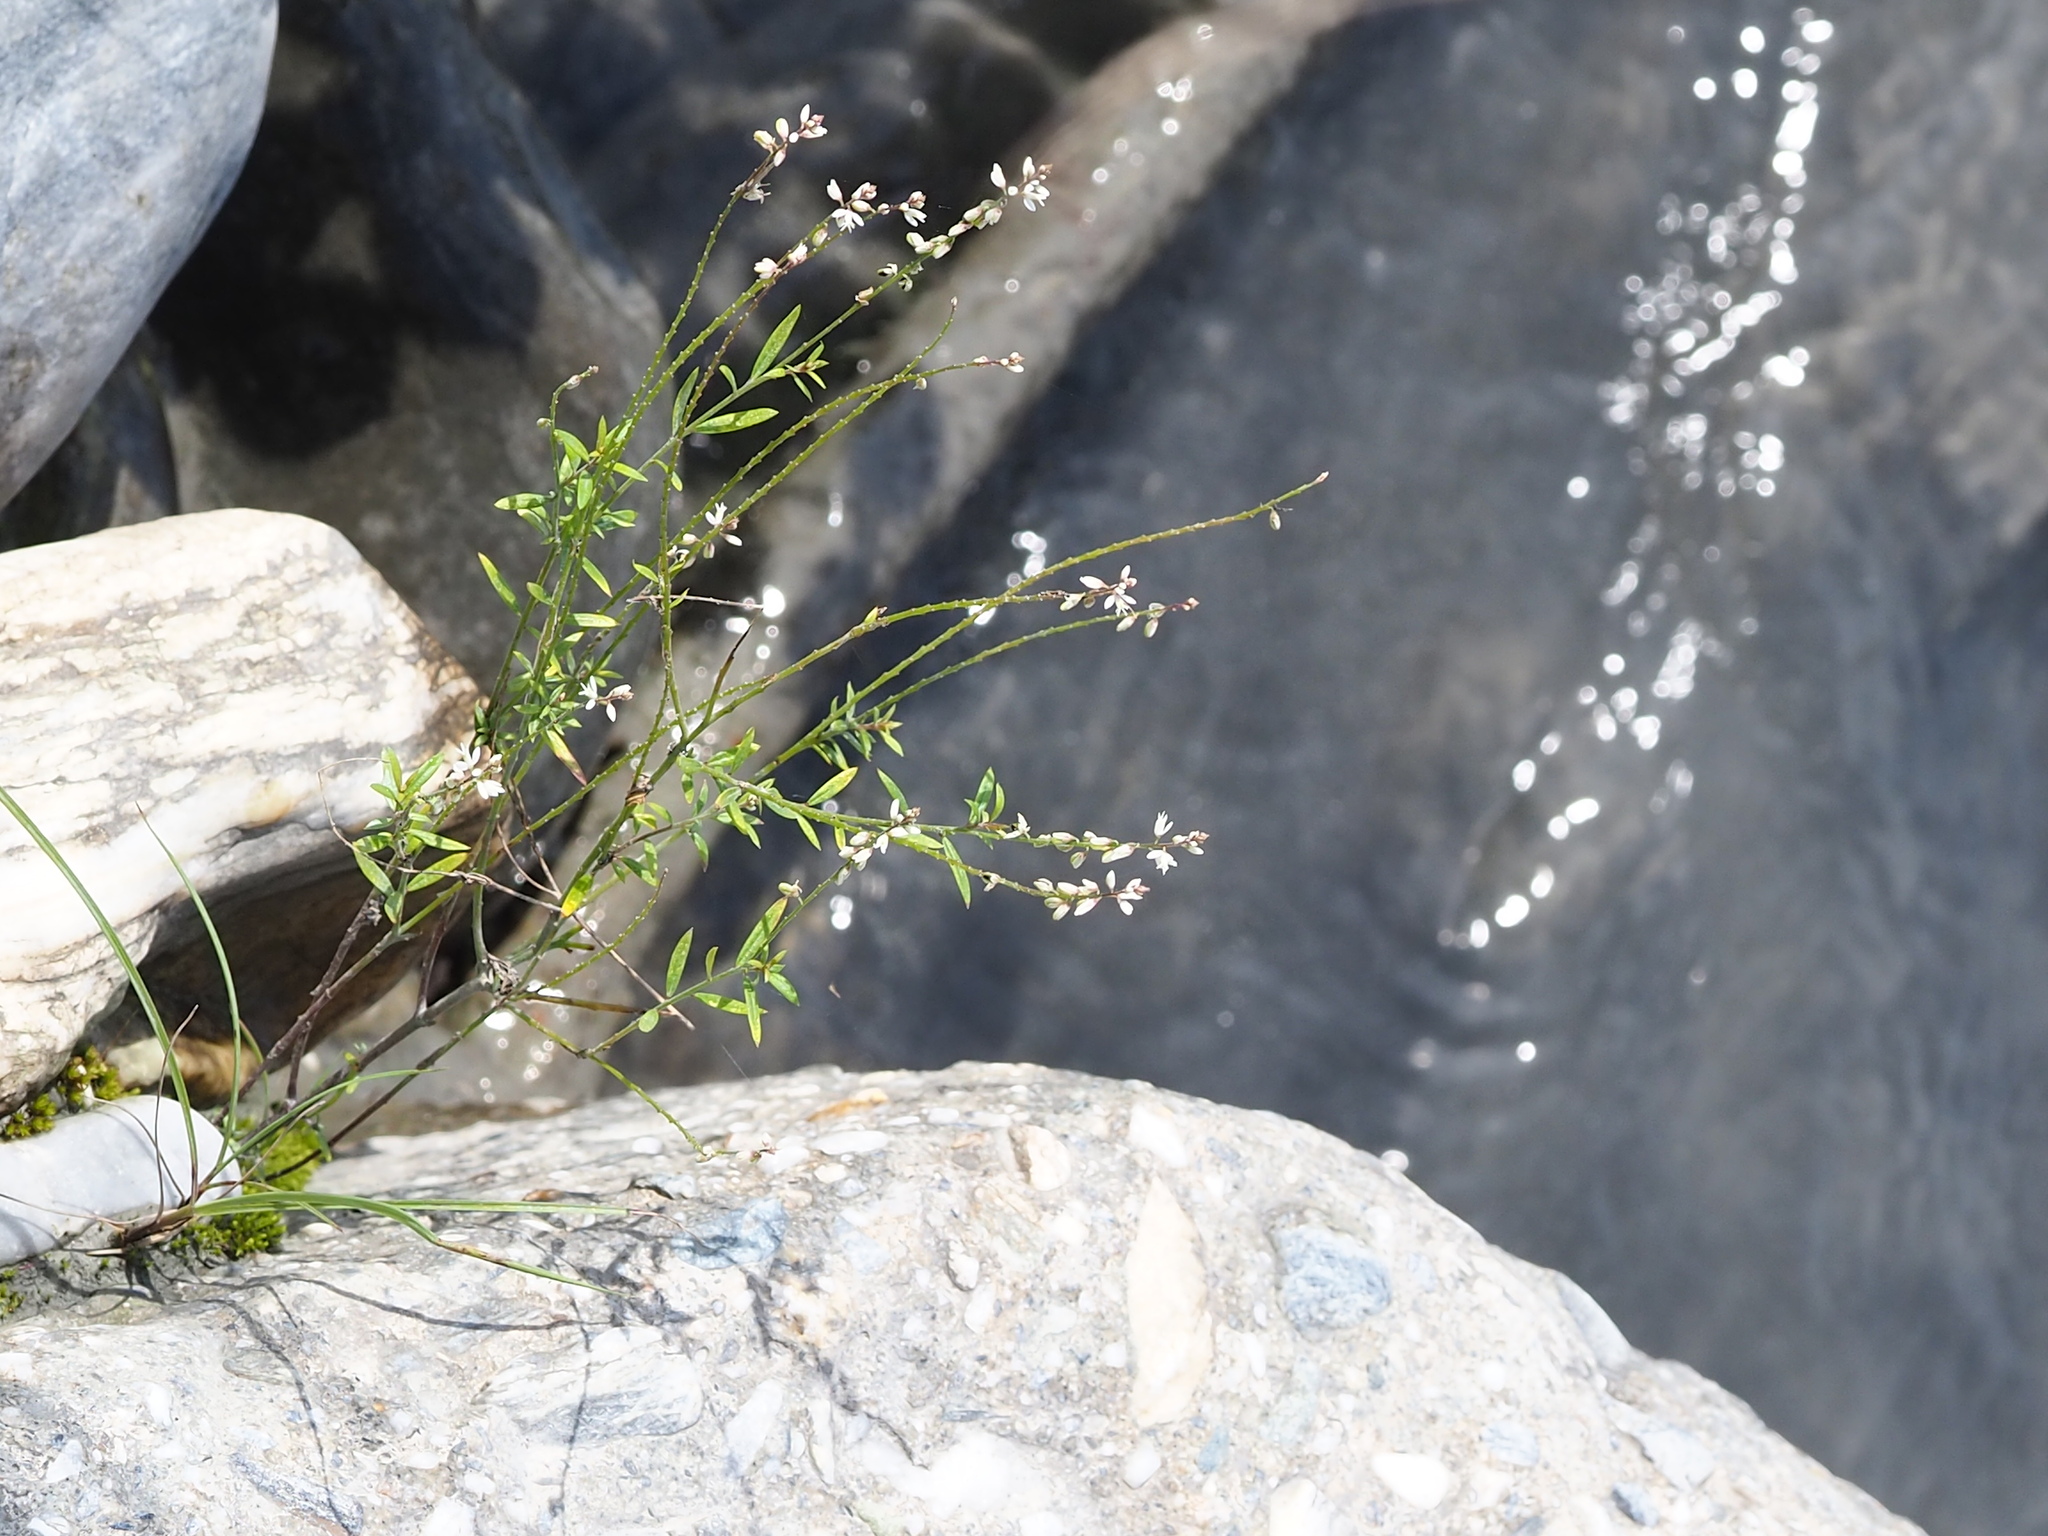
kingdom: Plantae
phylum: Tracheophyta
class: Magnoliopsida
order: Fabales
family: Polygalaceae
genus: Polygala
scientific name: Polygala paniculata
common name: Orosne
